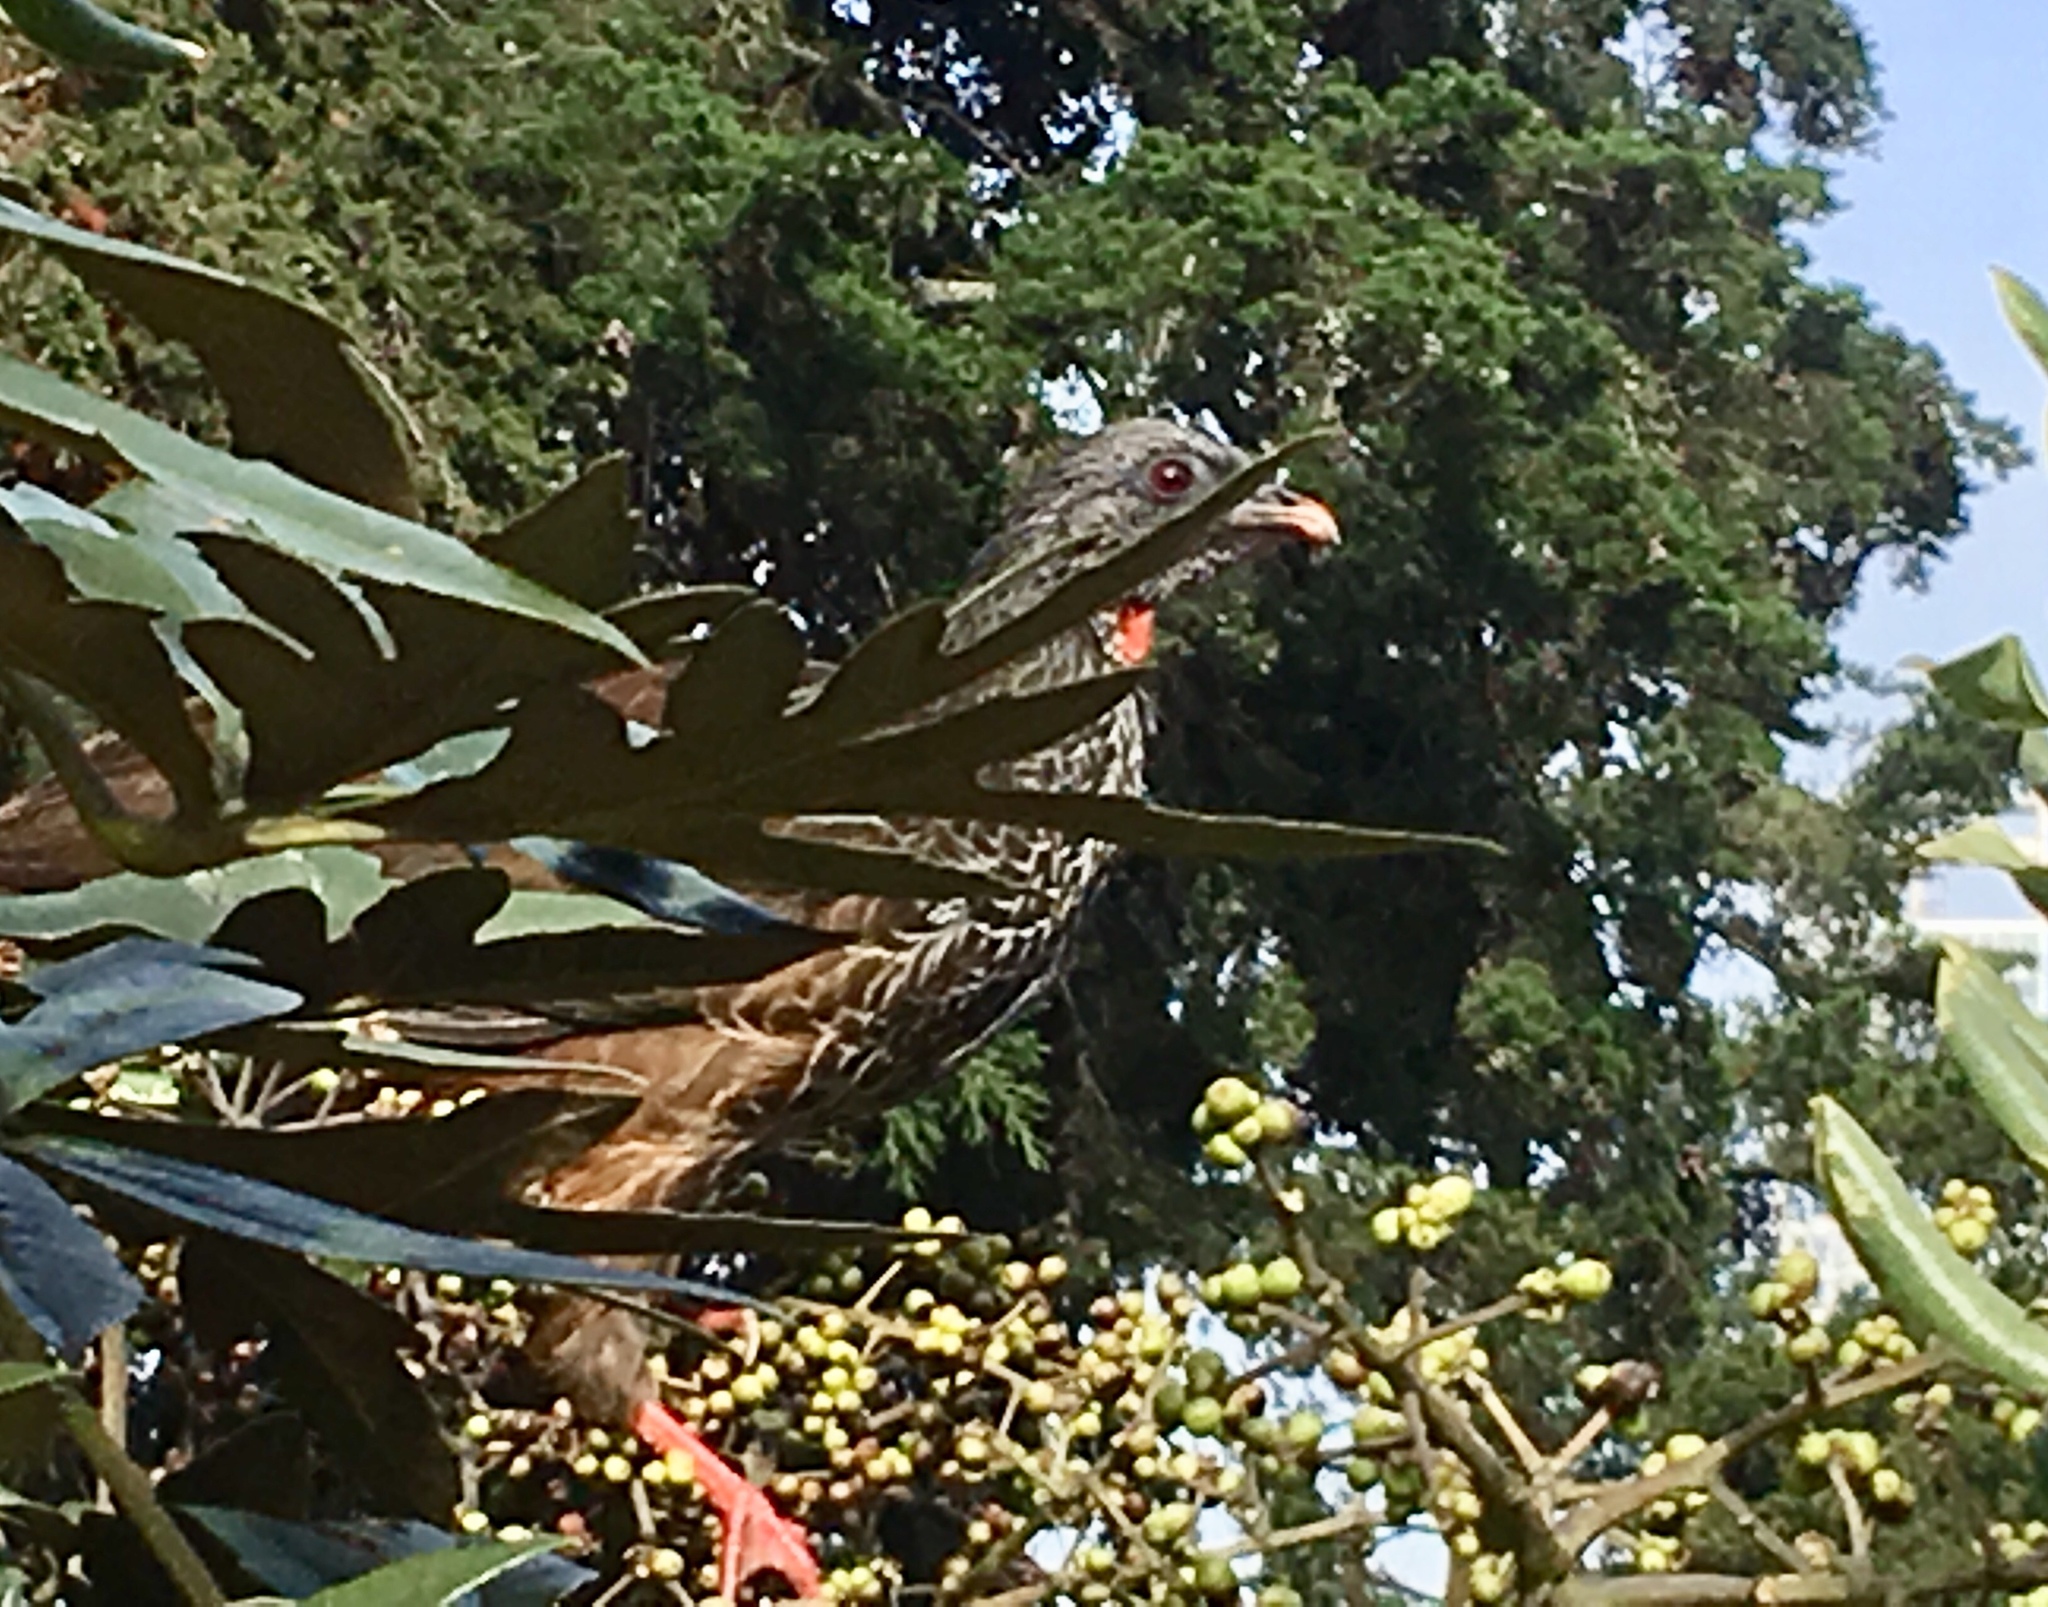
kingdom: Animalia
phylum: Chordata
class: Aves
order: Galliformes
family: Cracidae
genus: Penelope
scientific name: Penelope montagnii
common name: Andean guan
